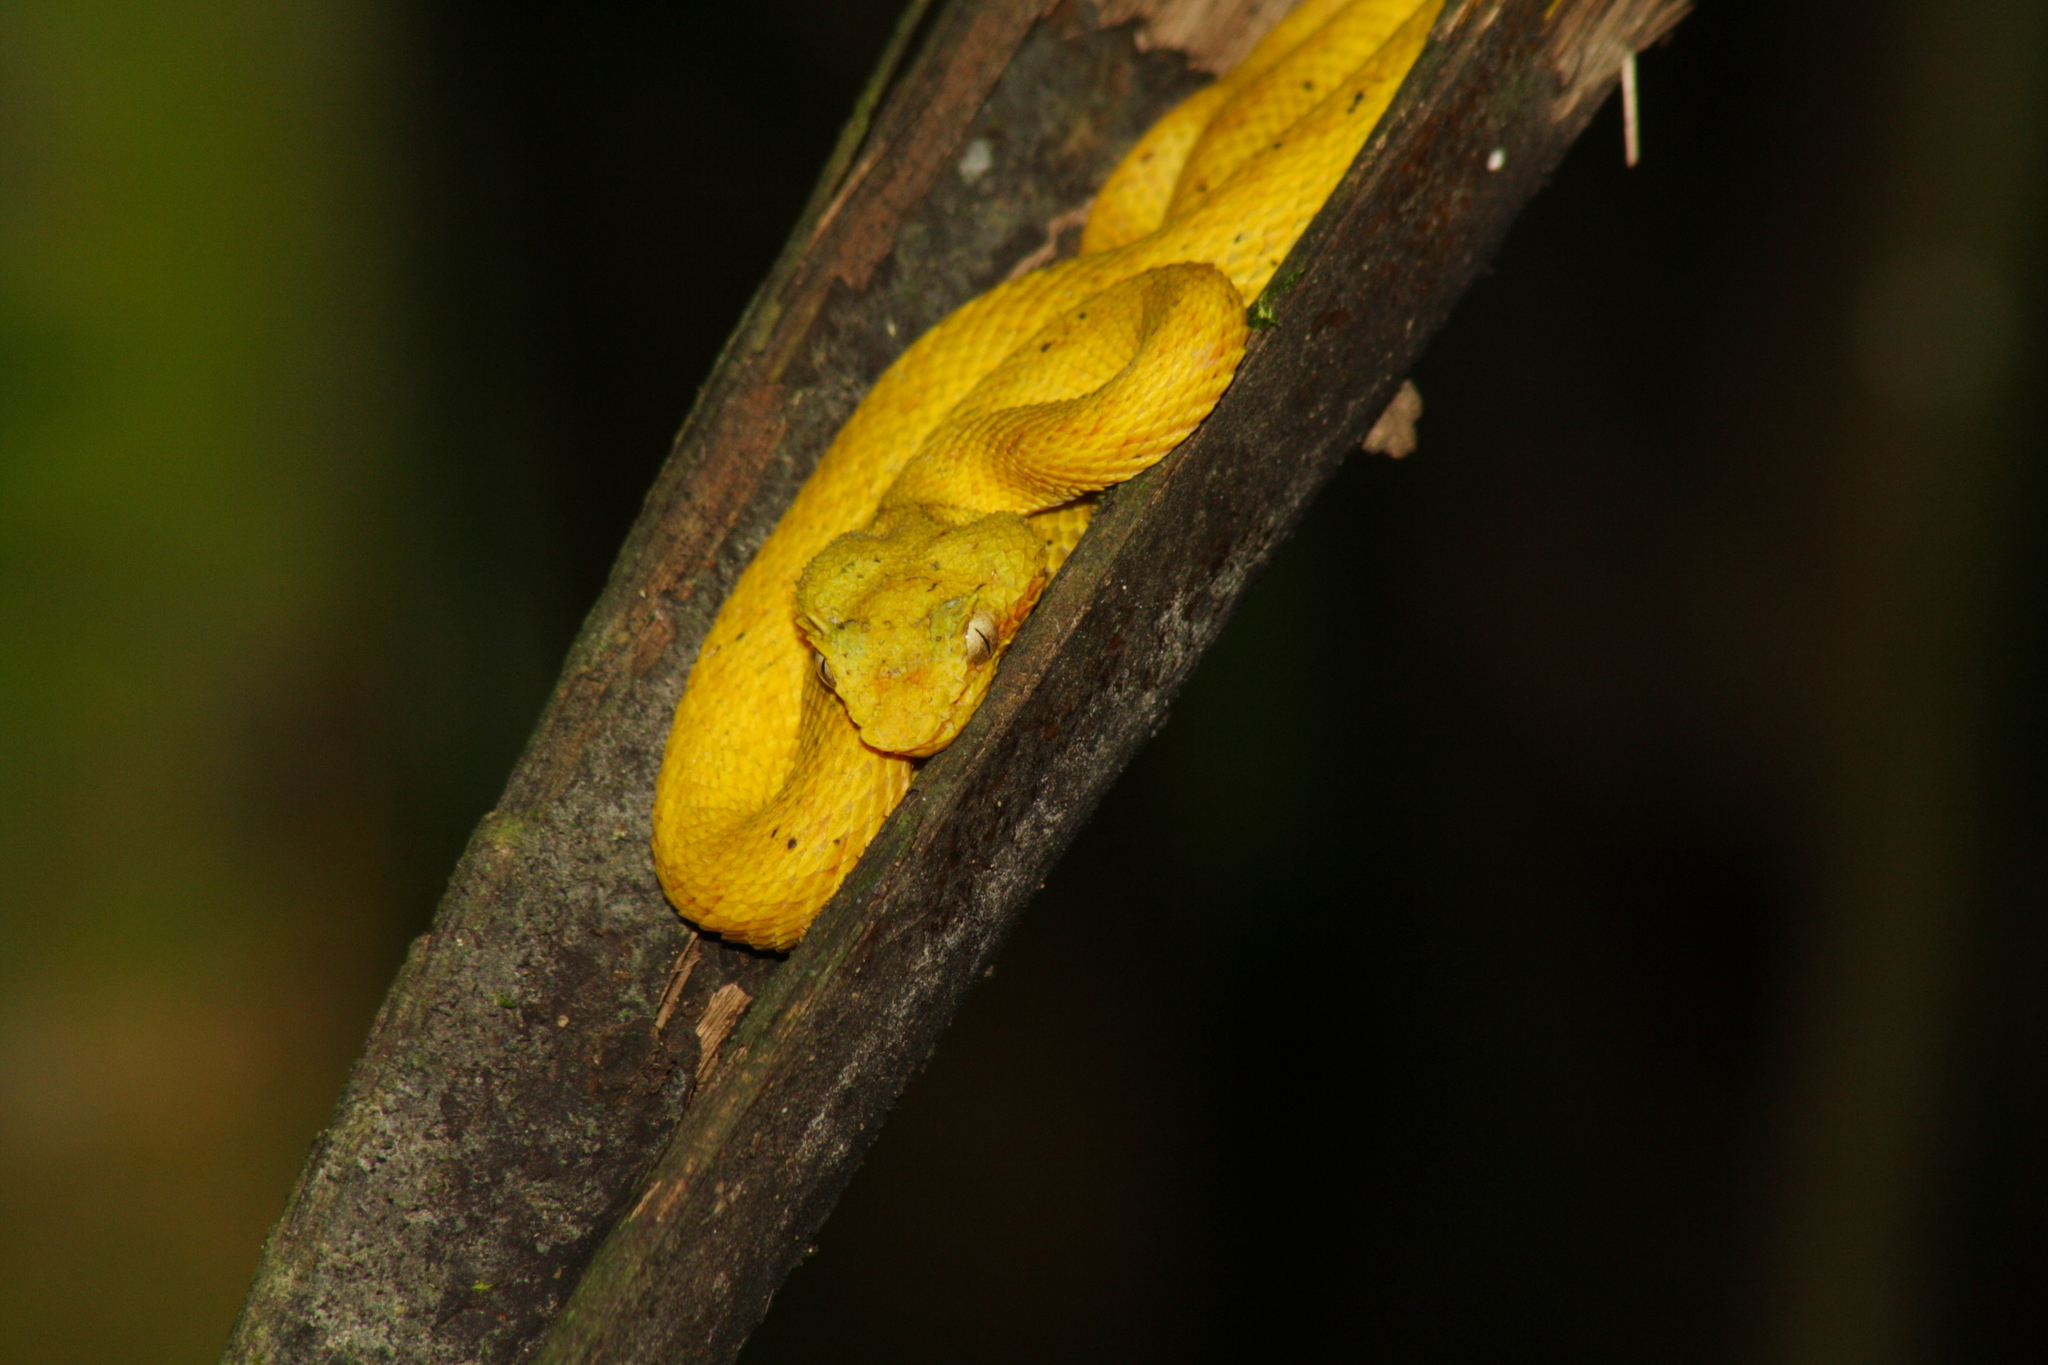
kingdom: Animalia
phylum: Chordata
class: Squamata
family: Viperidae
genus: Bothriechis
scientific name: Bothriechis schlegelii
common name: Eyelash viper
